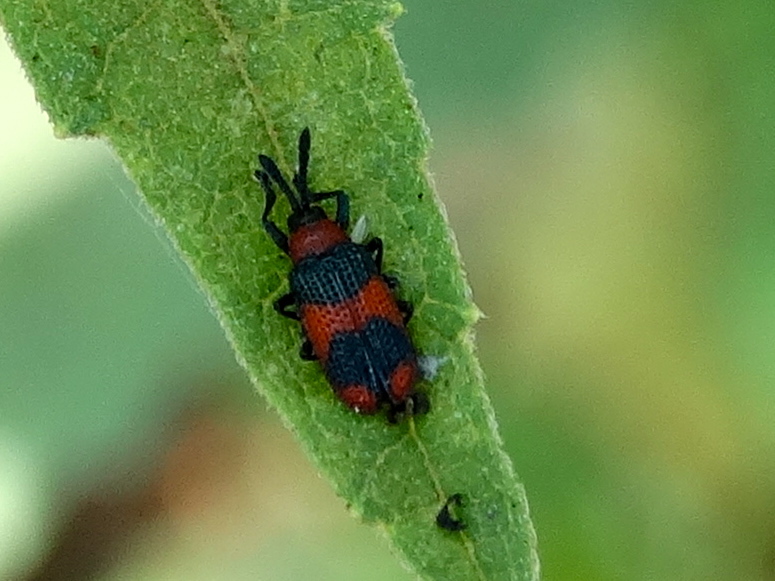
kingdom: Animalia
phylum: Arthropoda
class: Insecta
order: Coleoptera
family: Chrysomelidae
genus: Microrhopala
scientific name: Microrhopala beckeri
